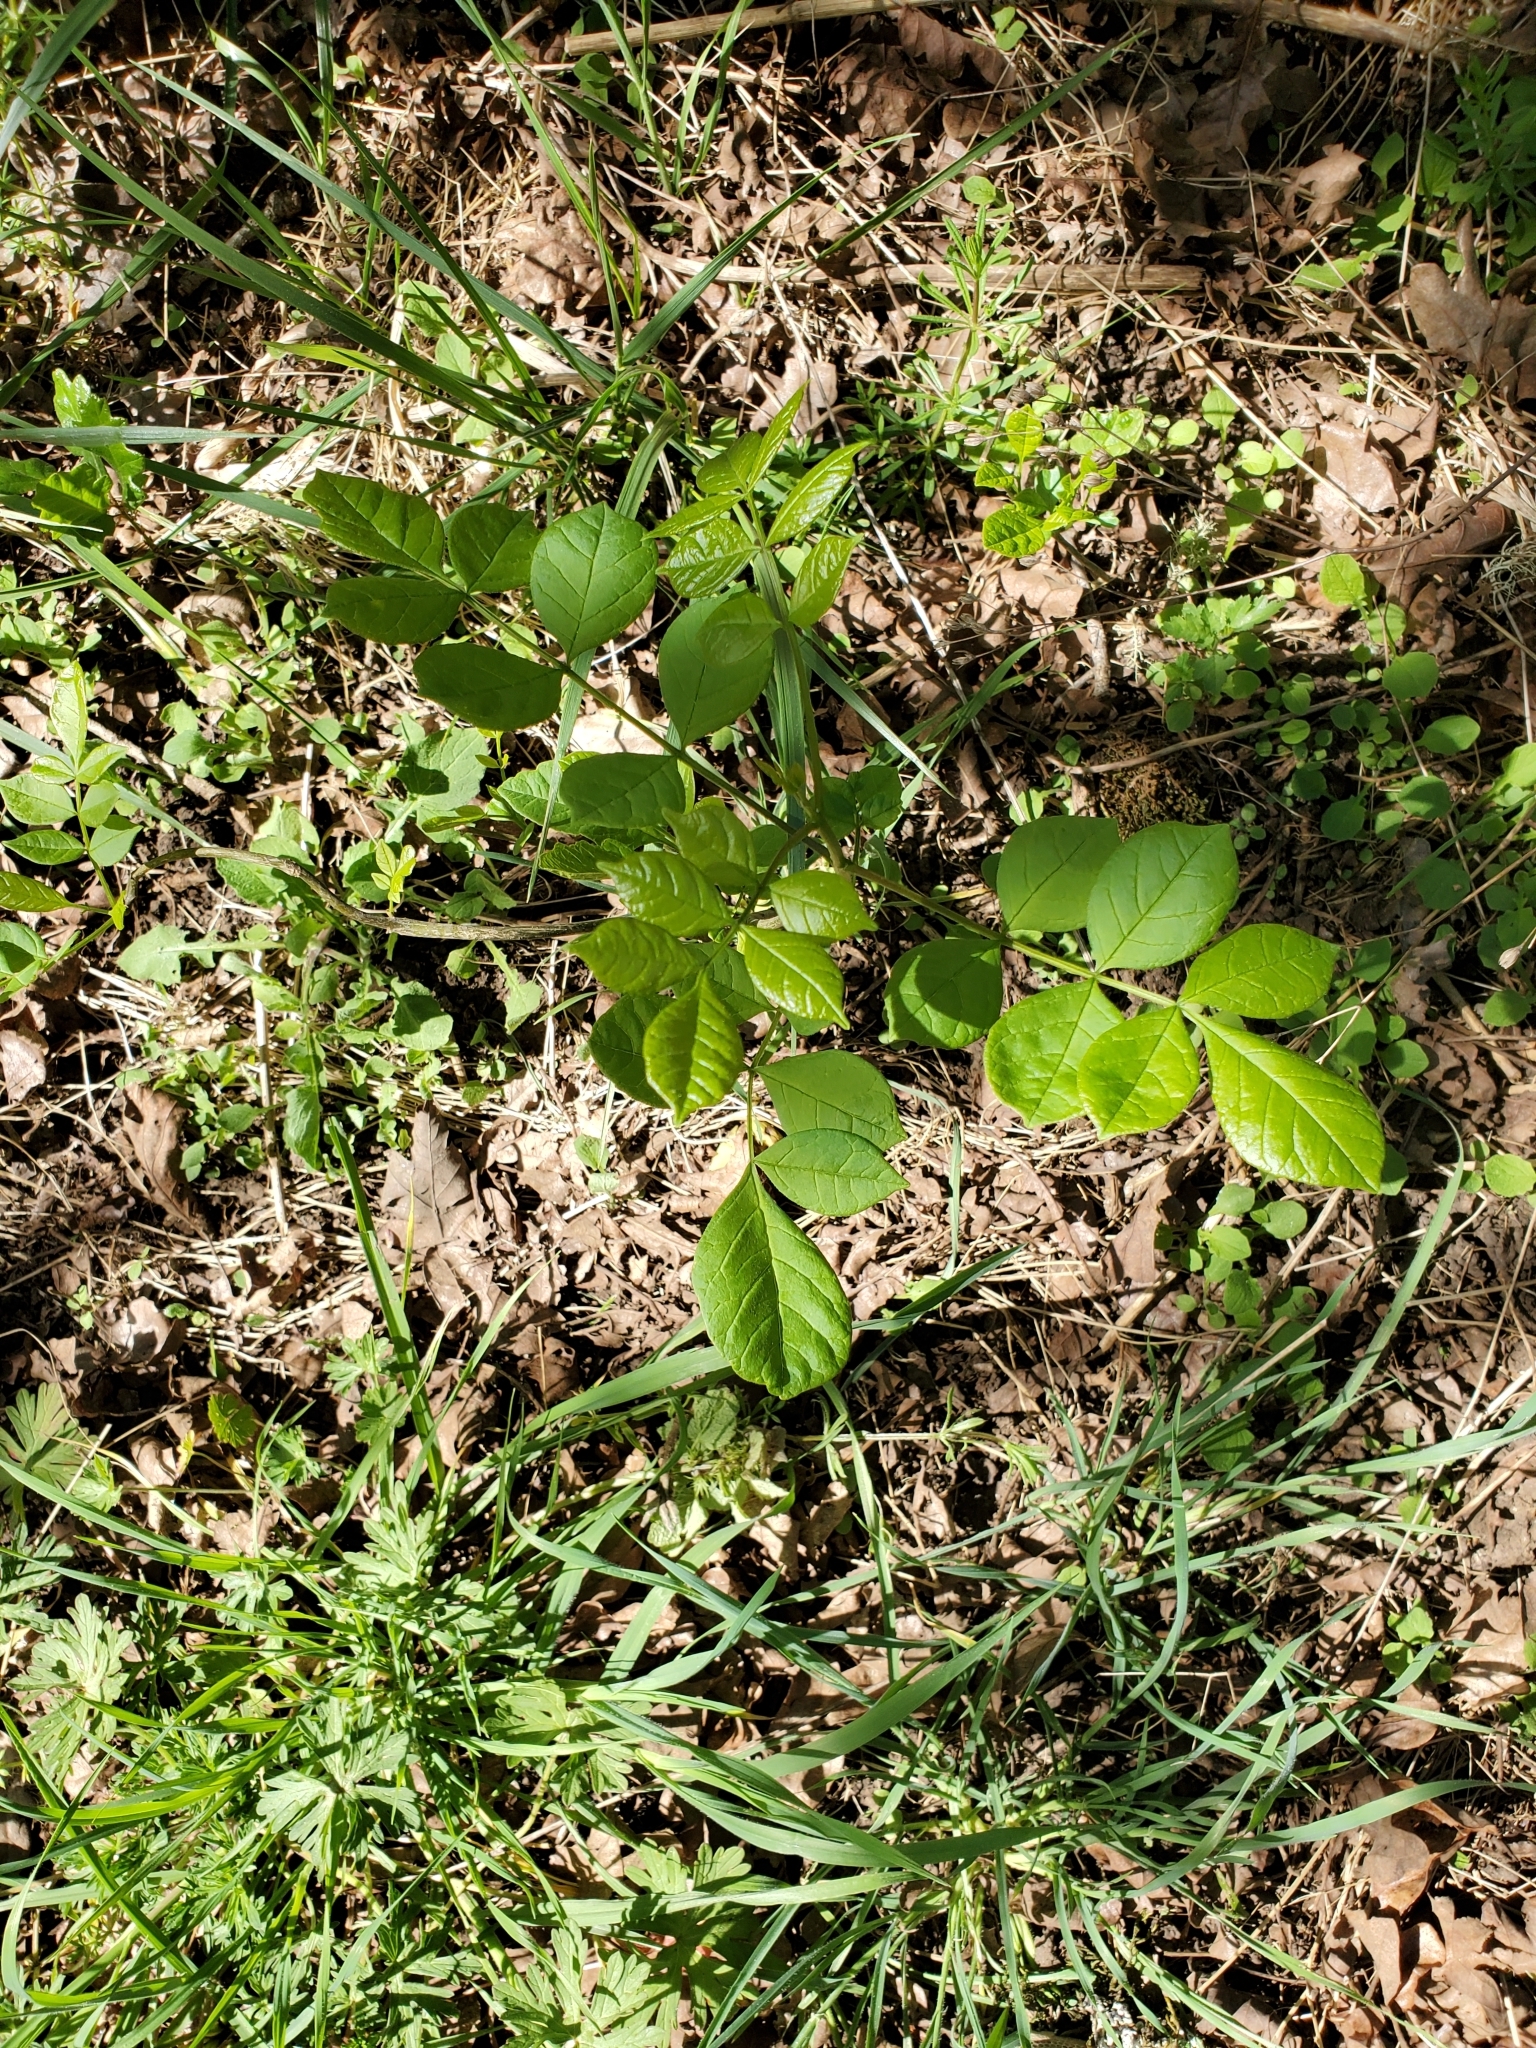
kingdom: Plantae
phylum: Tracheophyta
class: Magnoliopsida
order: Lamiales
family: Oleaceae
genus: Fraxinus
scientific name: Fraxinus latifolia
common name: Oregon ash
